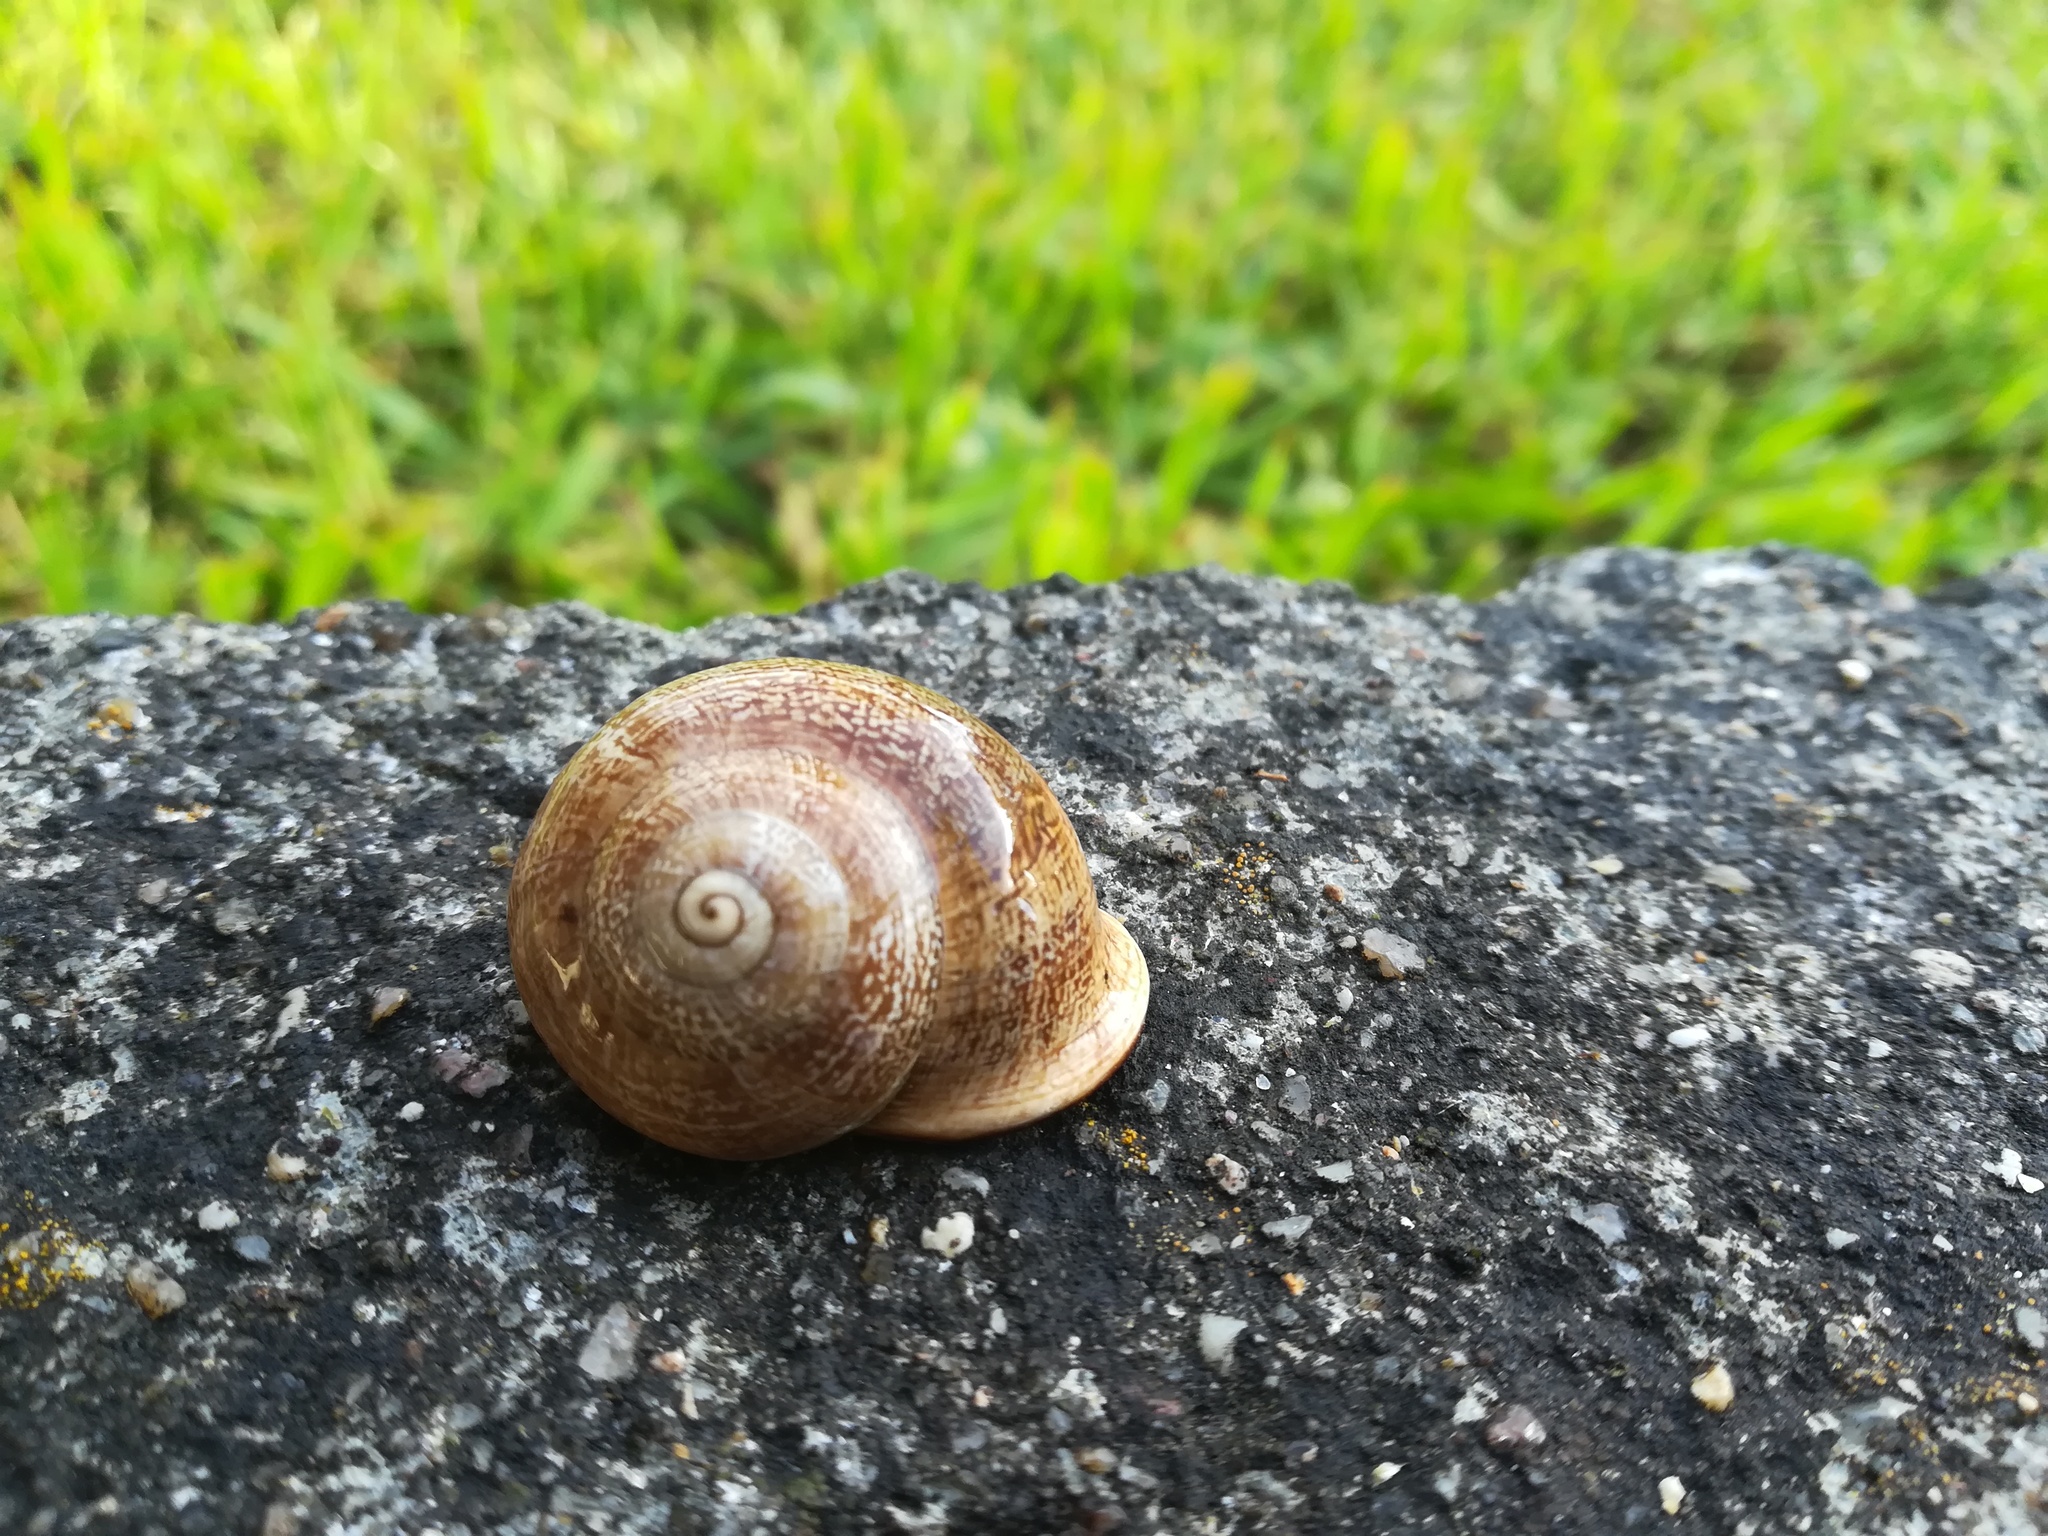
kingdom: Animalia
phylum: Mollusca
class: Gastropoda
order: Stylommatophora
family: Helicidae
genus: Otala
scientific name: Otala lactea
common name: Milk snail
